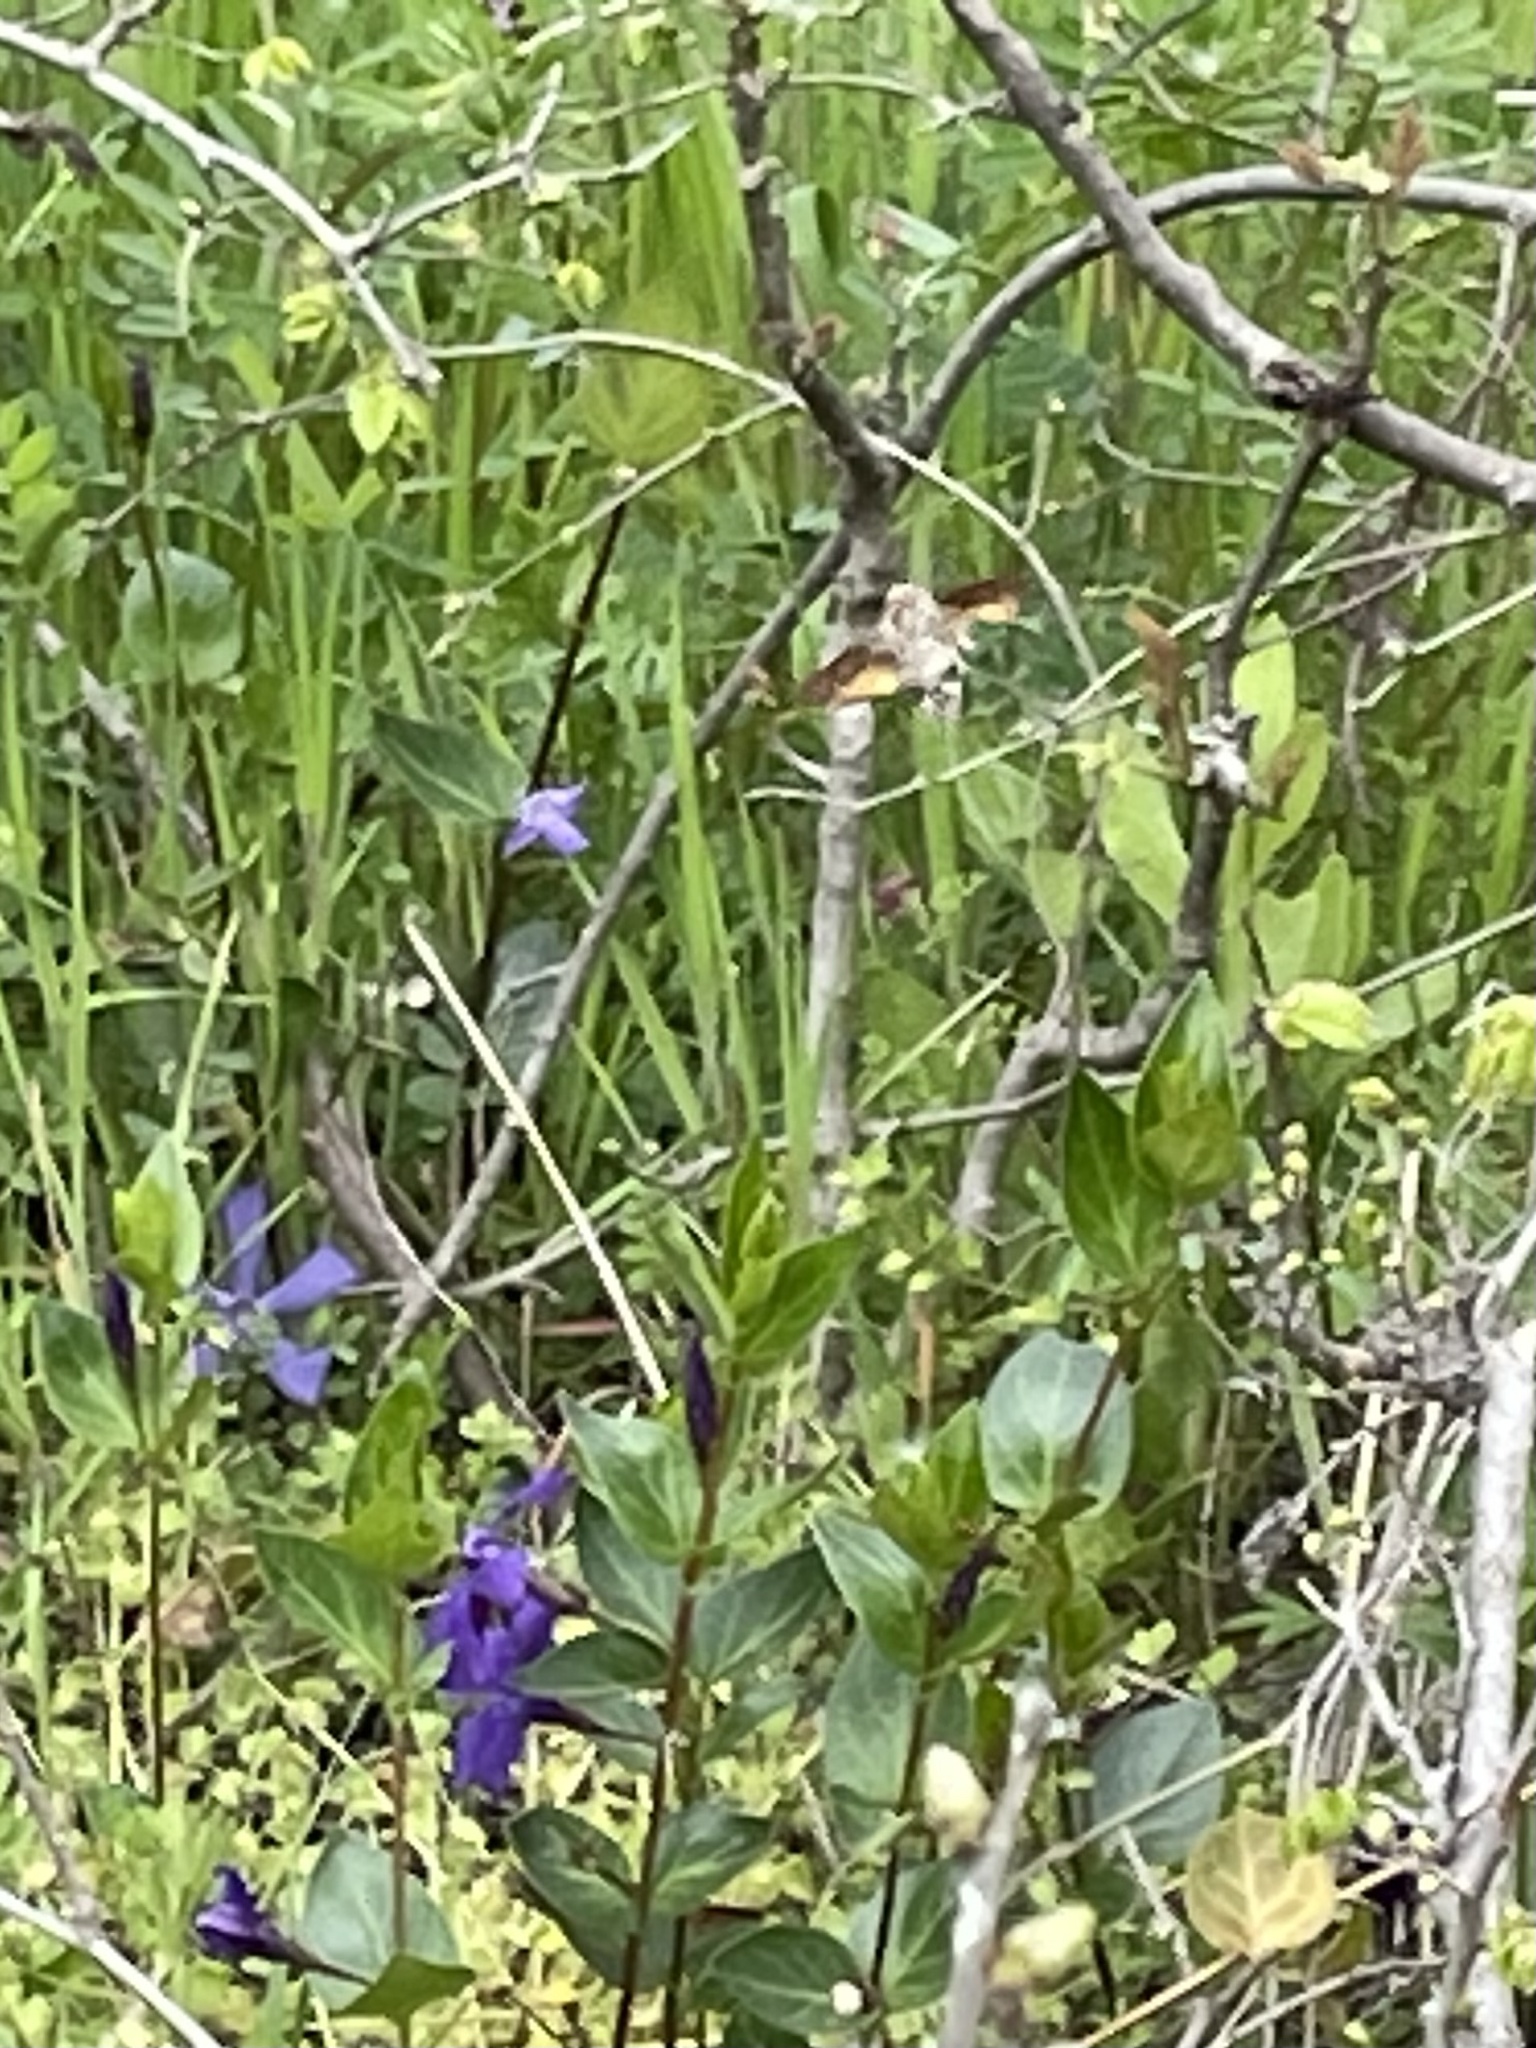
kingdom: Animalia
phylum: Arthropoda
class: Insecta
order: Lepidoptera
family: Sphingidae
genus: Macroglossum
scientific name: Macroglossum stellatarum
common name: Humming-bird hawk-moth
